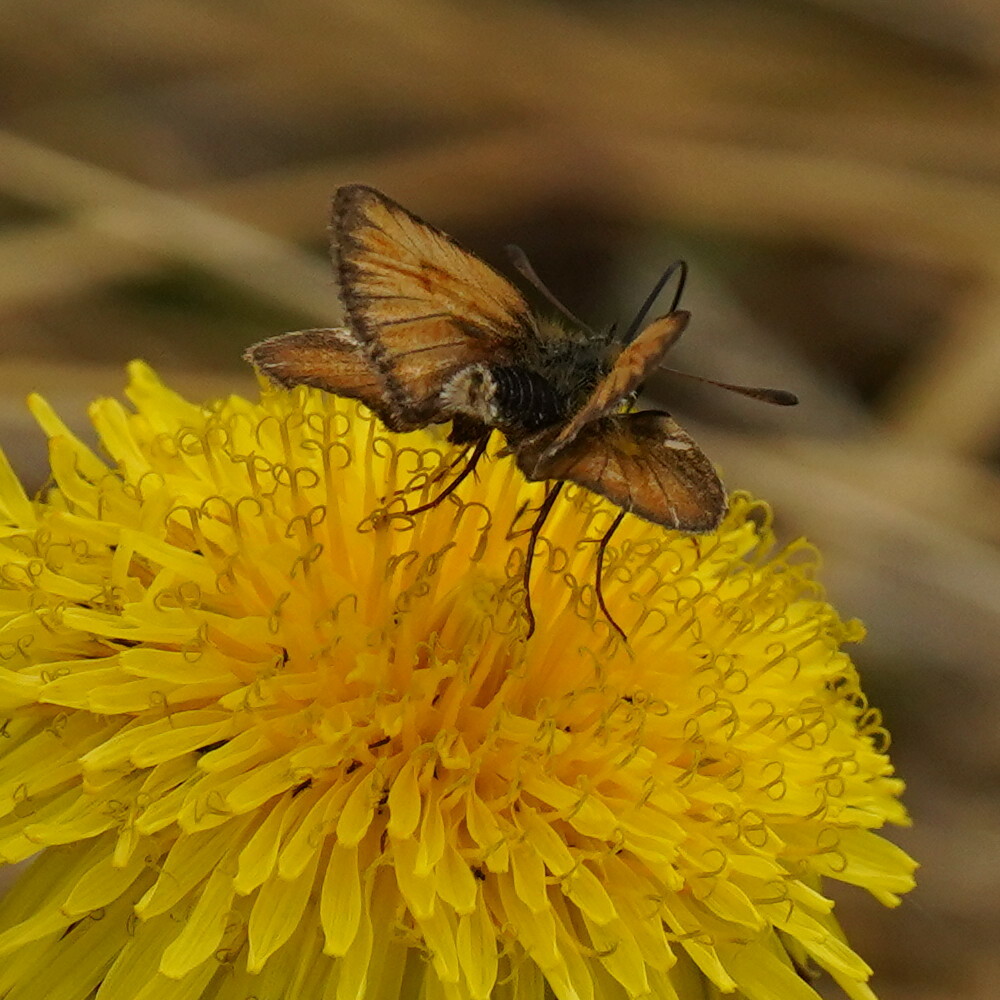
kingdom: Animalia
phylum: Arthropoda
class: Insecta
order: Lepidoptera
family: Hesperiidae
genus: Thymelicus
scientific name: Thymelicus lineola
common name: Essex skipper
